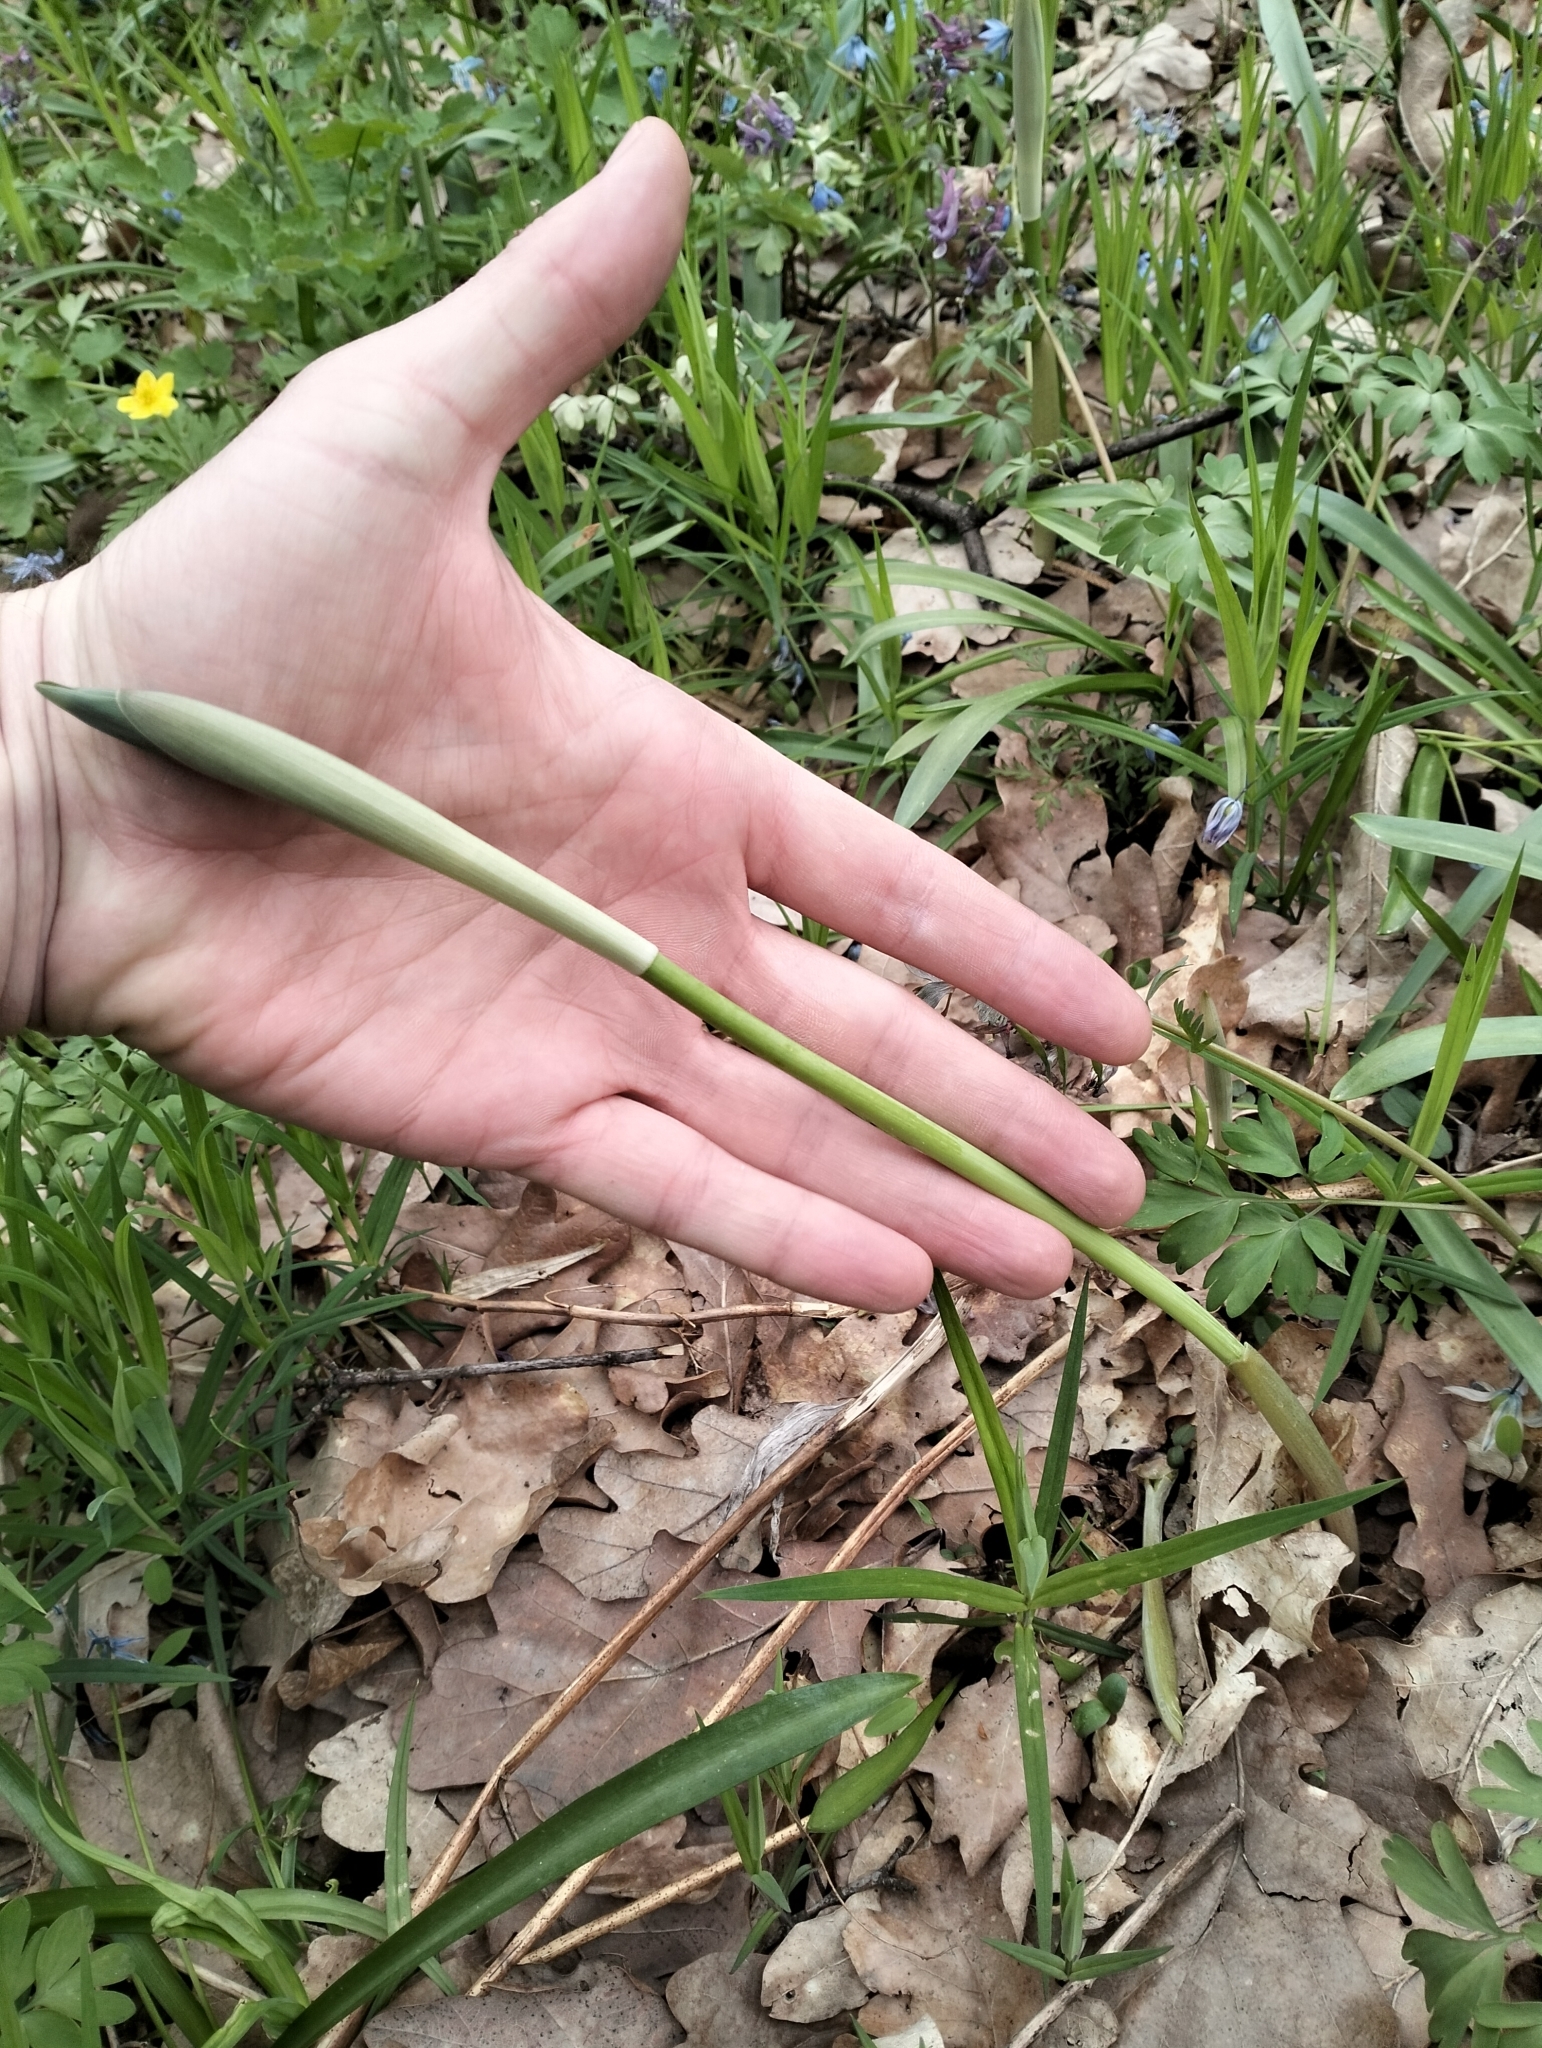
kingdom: Plantae
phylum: Tracheophyta
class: Liliopsida
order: Asparagales
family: Asparagaceae
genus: Polygonatum
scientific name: Polygonatum multiflorum
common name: Solomon's-seal
